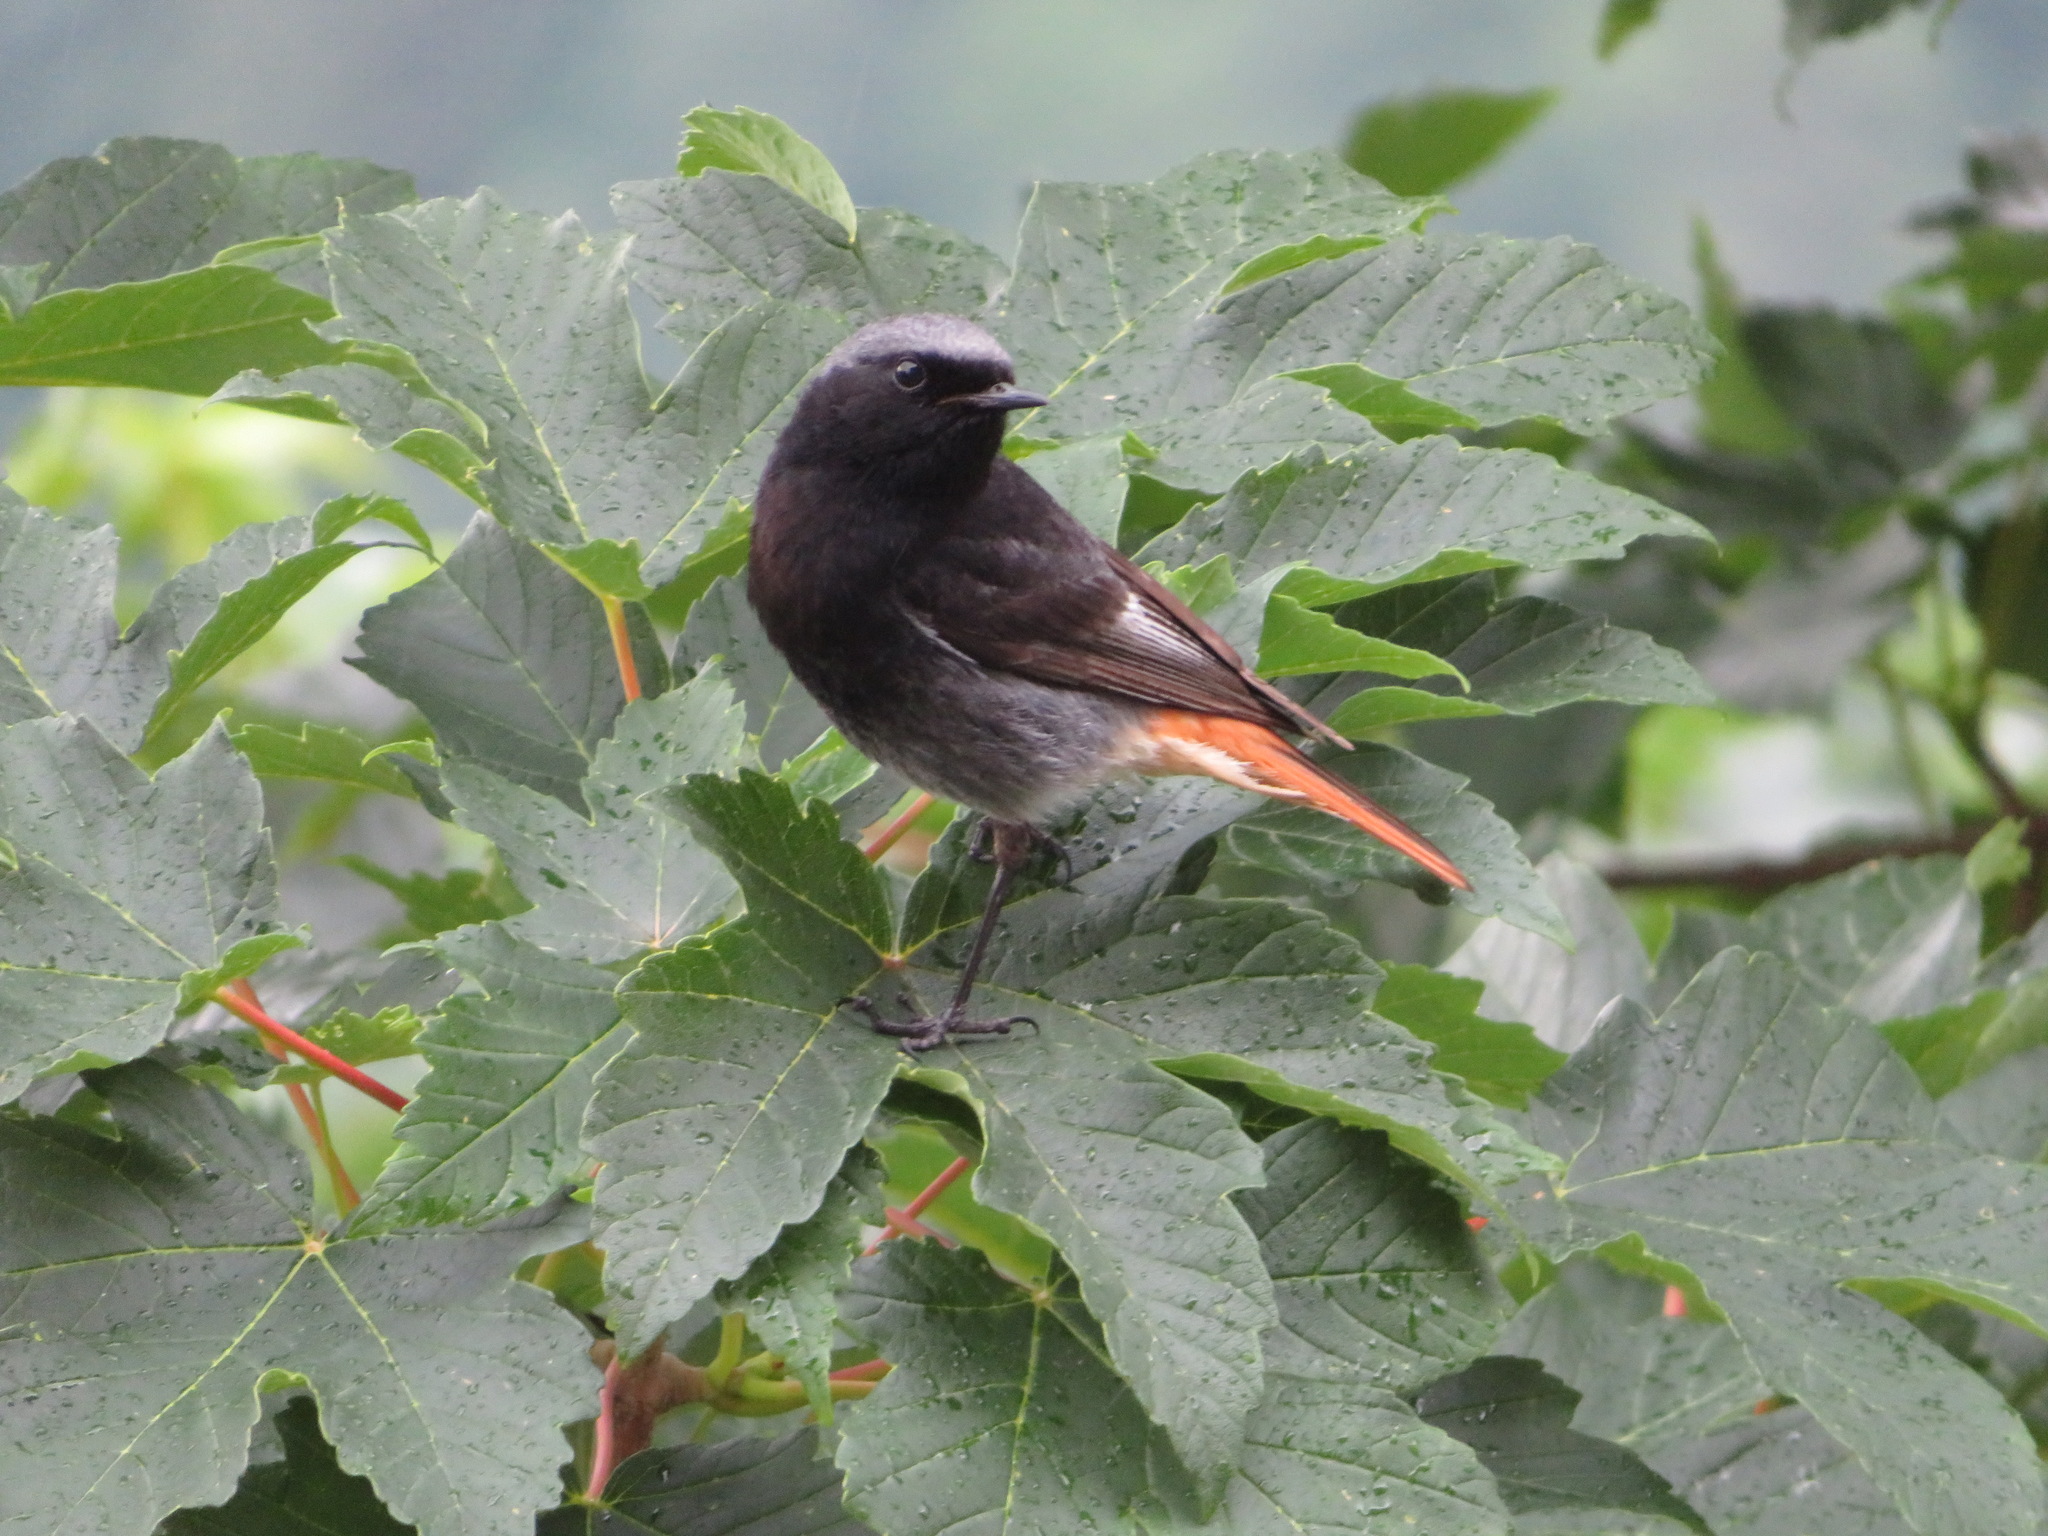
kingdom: Animalia
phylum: Chordata
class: Aves
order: Passeriformes
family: Muscicapidae
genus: Phoenicurus
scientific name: Phoenicurus ochruros
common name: Black redstart
